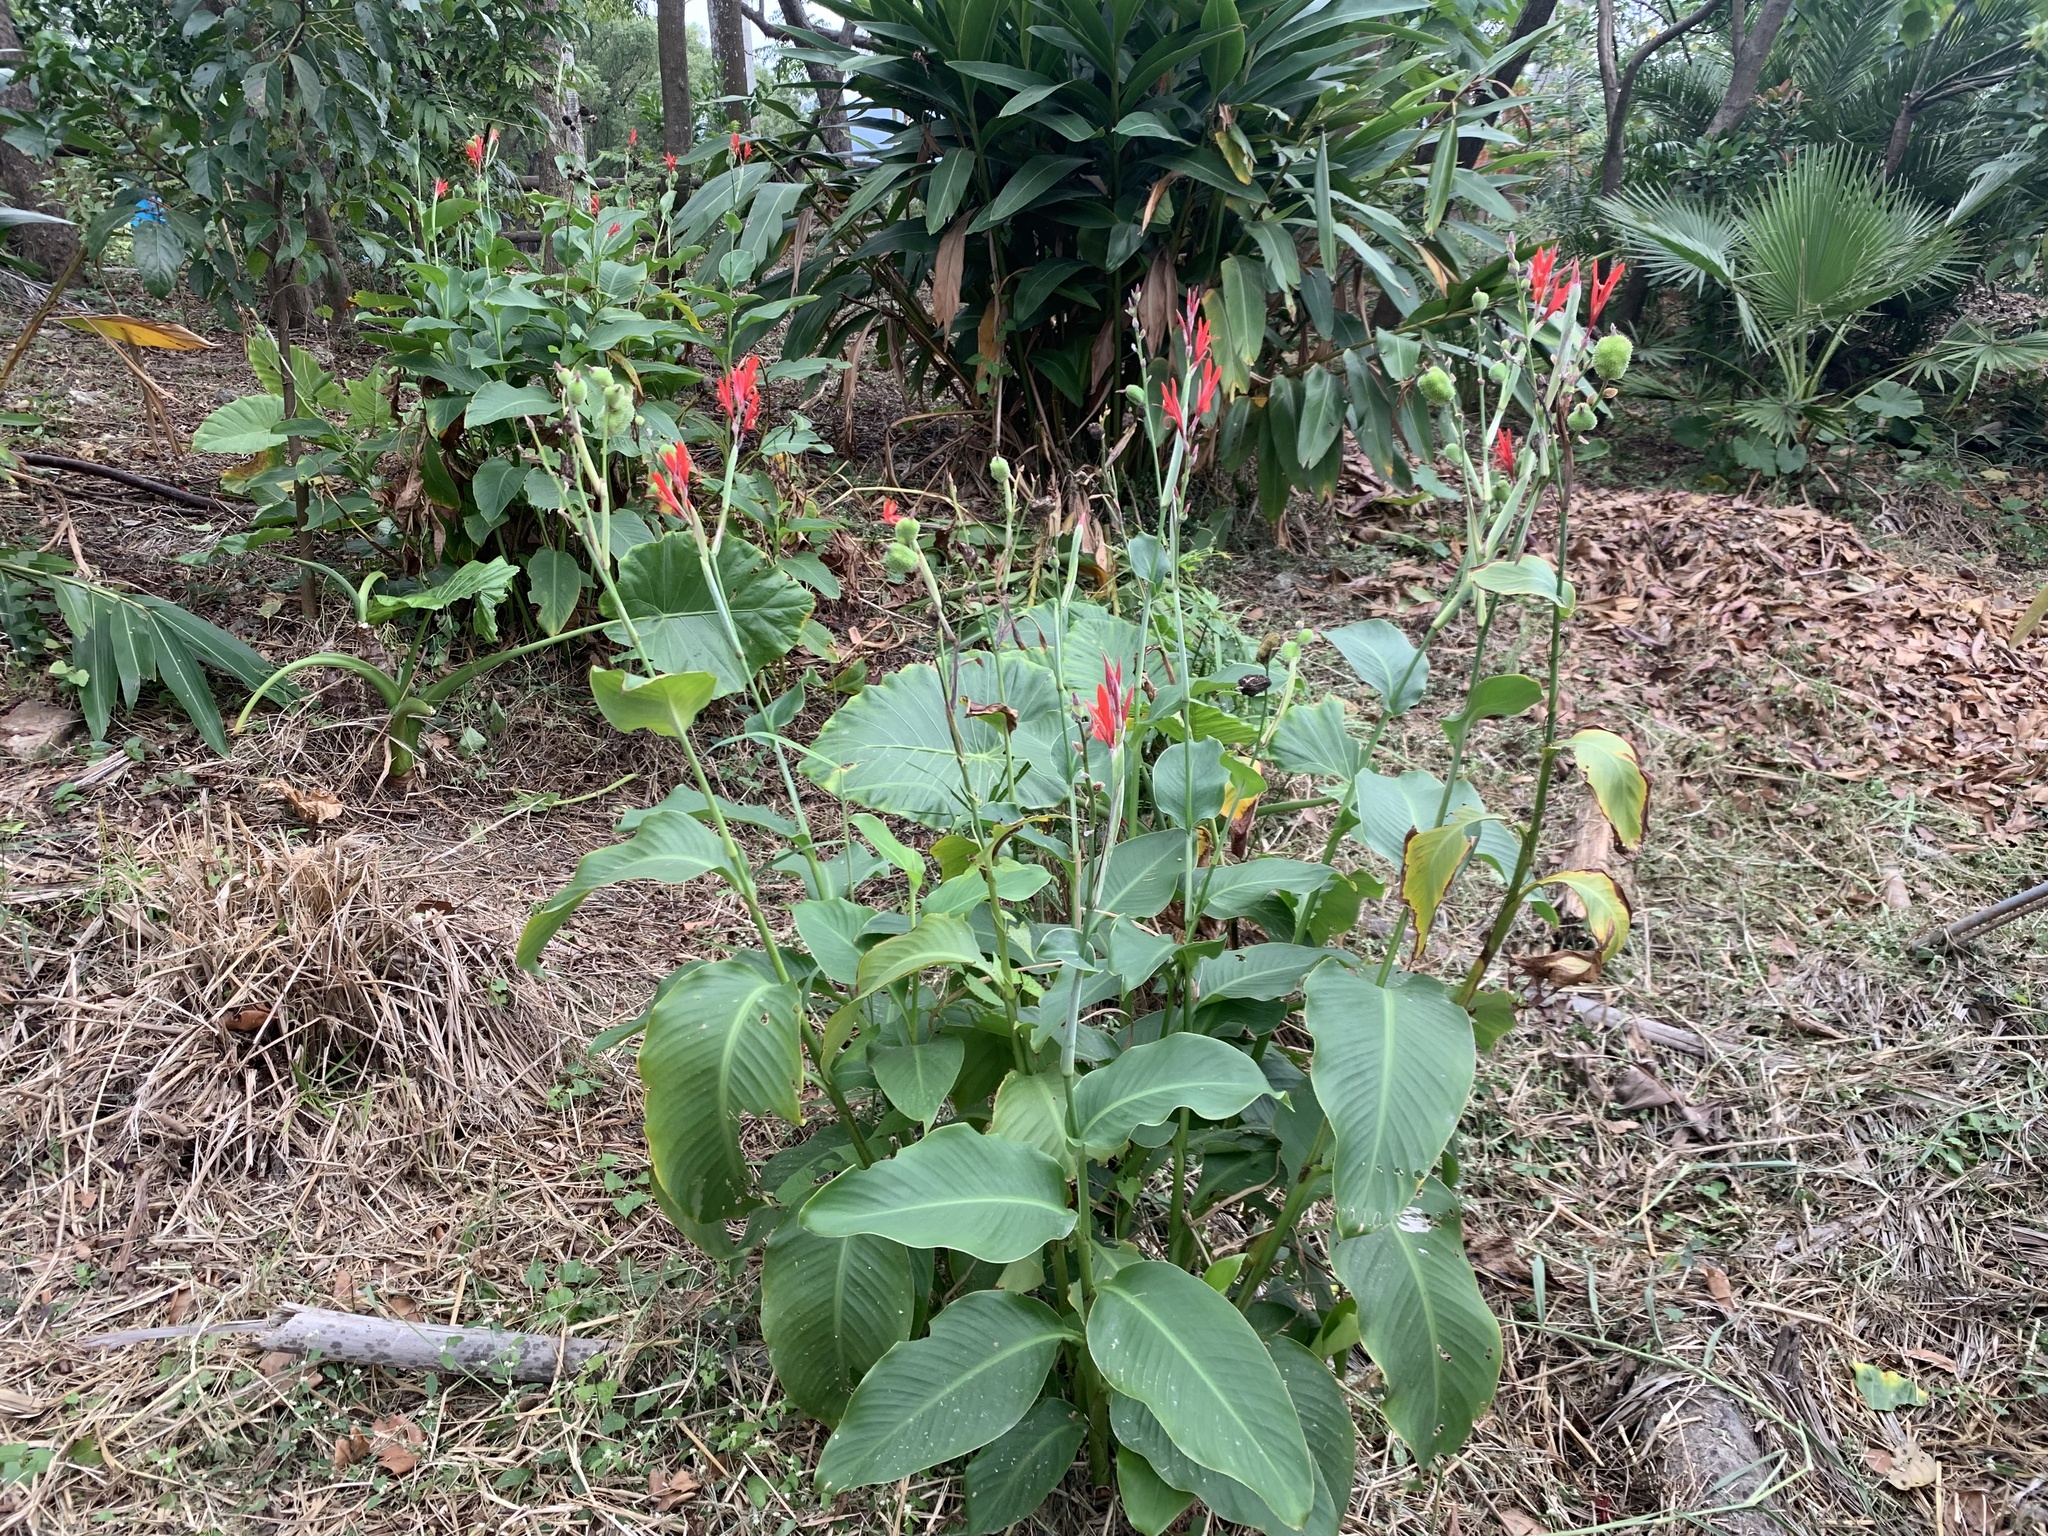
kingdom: Plantae
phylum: Tracheophyta
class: Liliopsida
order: Zingiberales
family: Cannaceae
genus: Canna
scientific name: Canna indica
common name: Indian shot
